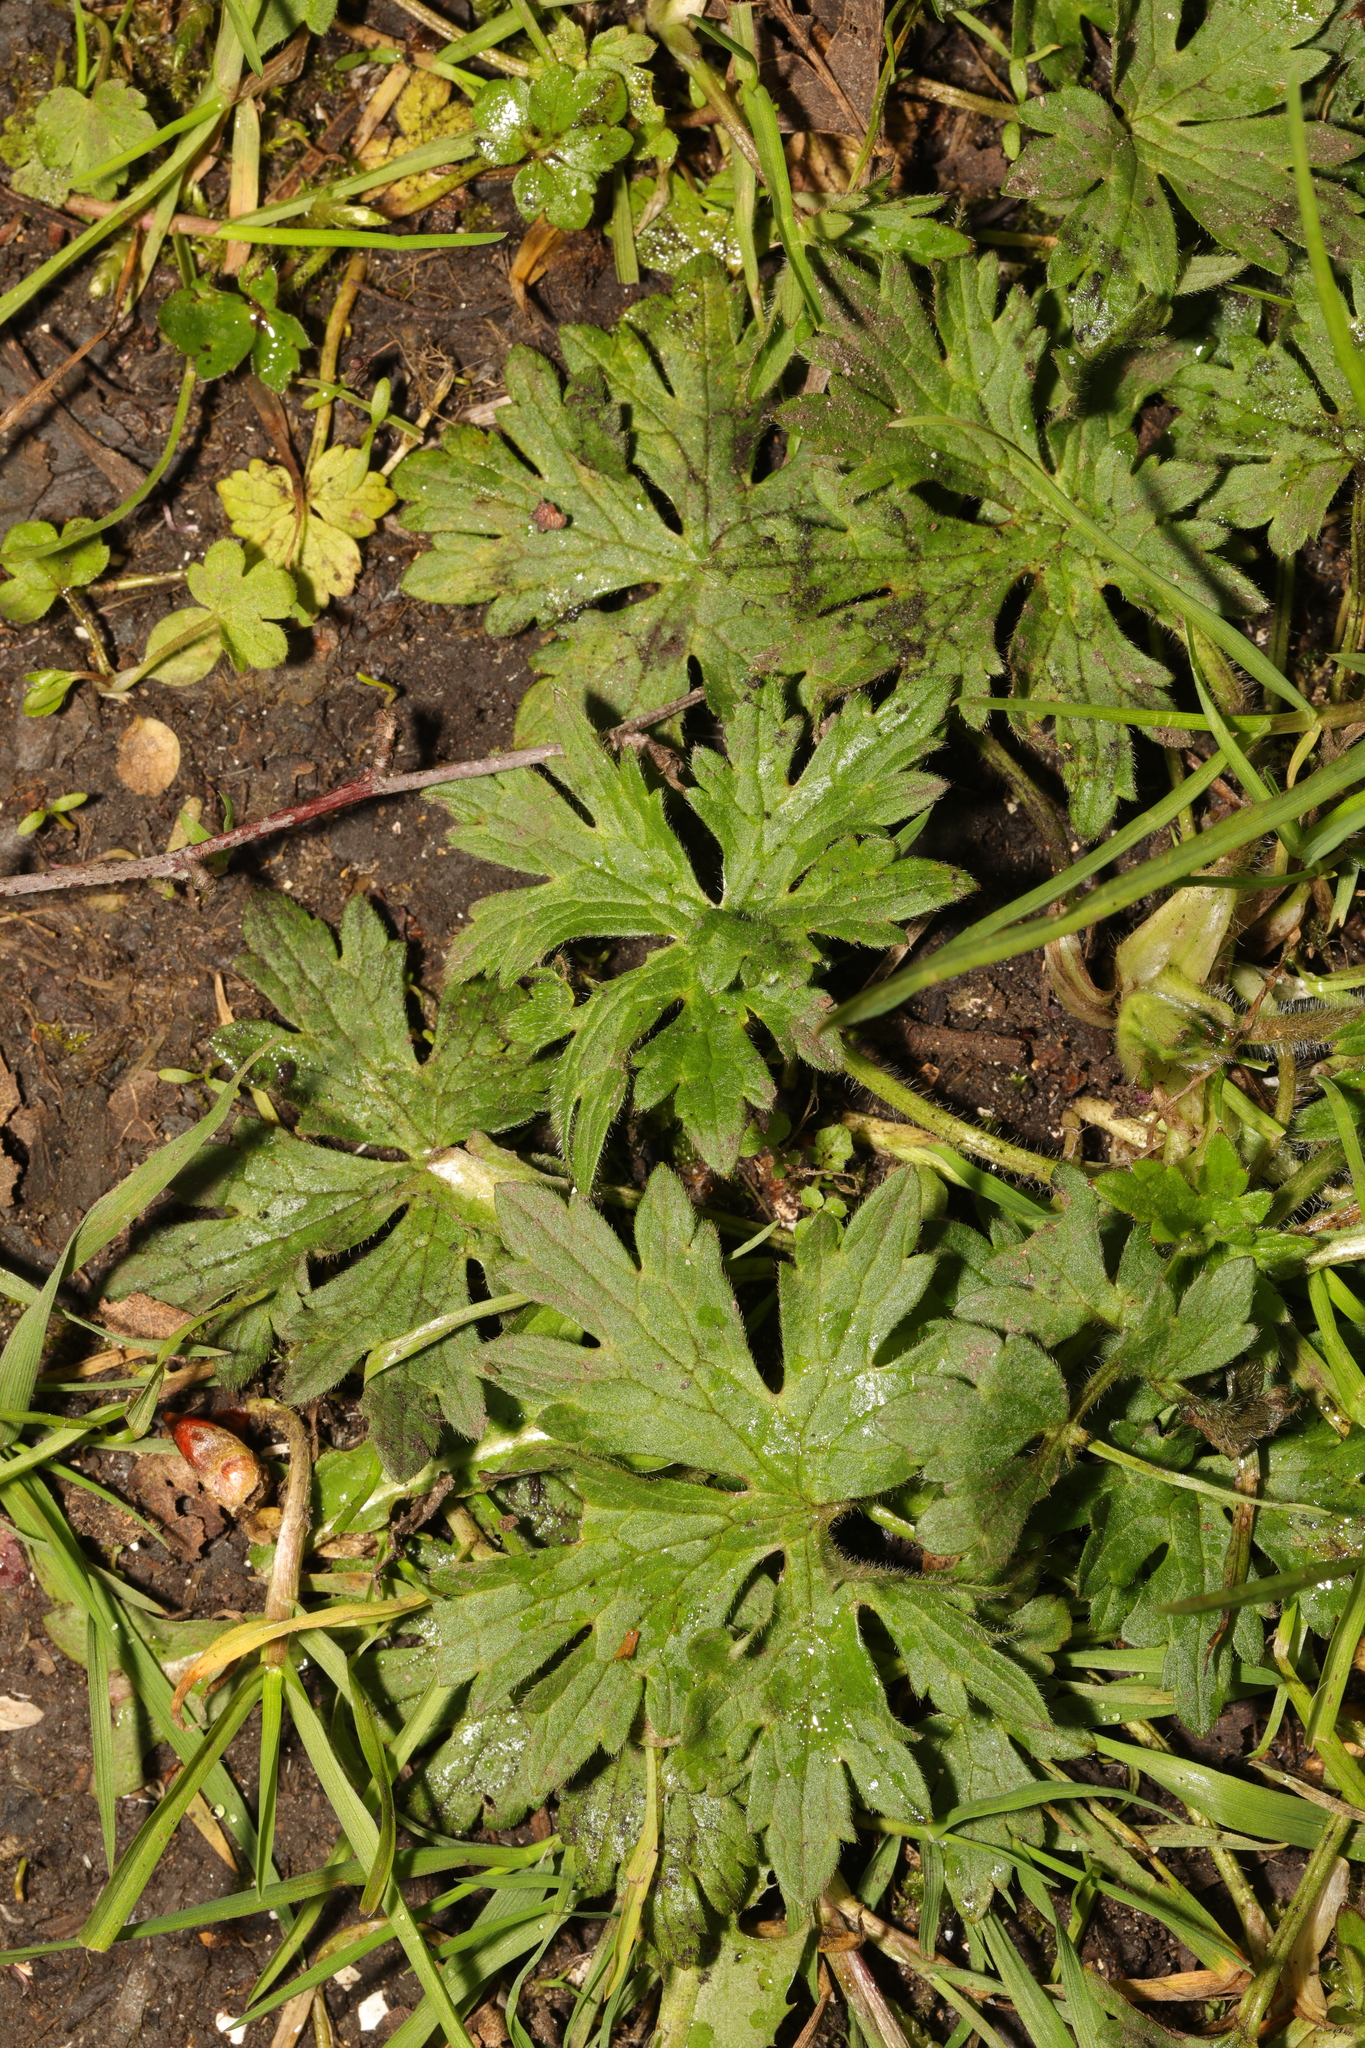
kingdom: Plantae
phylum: Tracheophyta
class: Magnoliopsida
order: Ranunculales
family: Ranunculaceae
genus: Ranunculus
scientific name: Ranunculus acris
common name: Meadow buttercup
